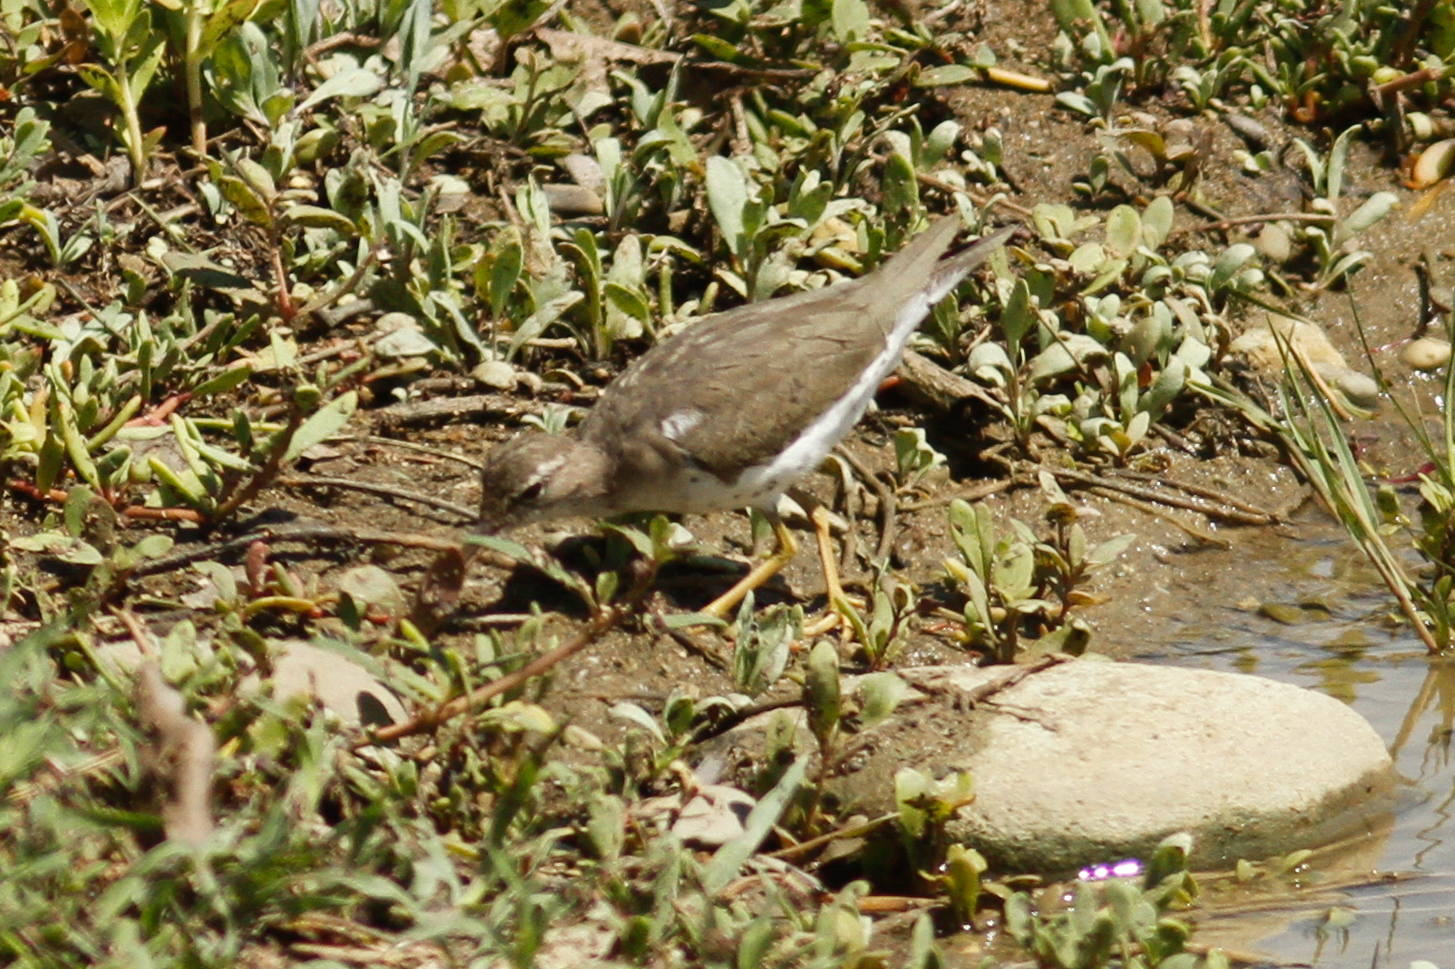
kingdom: Animalia
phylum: Chordata
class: Aves
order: Charadriiformes
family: Scolopacidae
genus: Actitis
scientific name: Actitis macularius
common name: Spotted sandpiper
